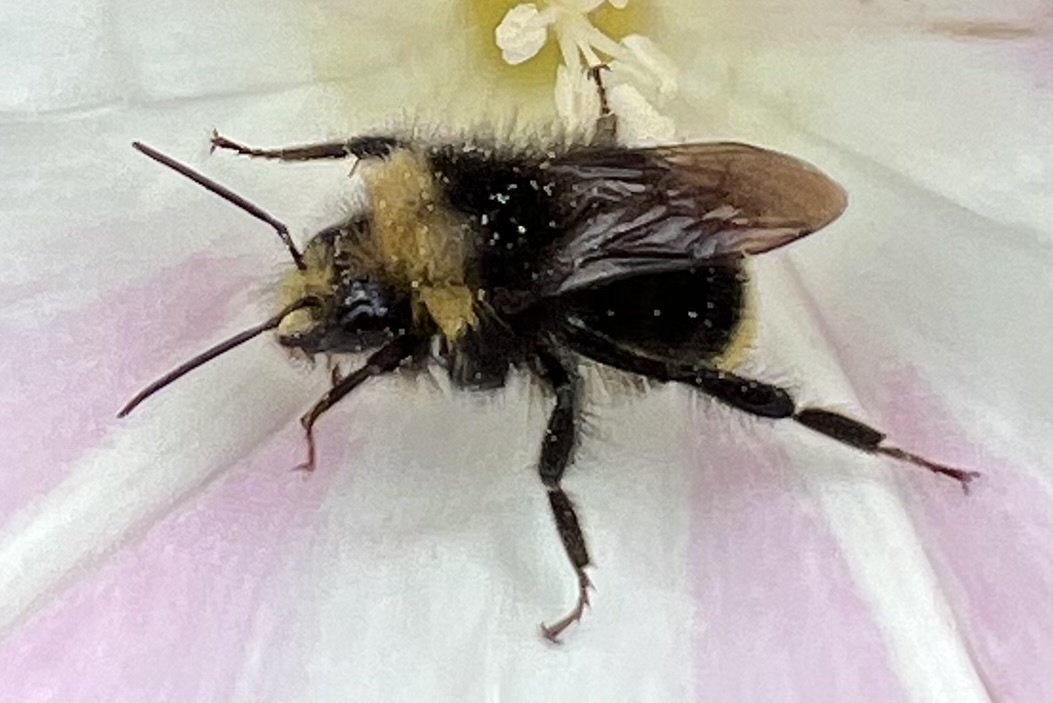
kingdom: Animalia
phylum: Arthropoda
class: Insecta
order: Hymenoptera
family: Apidae
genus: Bombus
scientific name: Bombus caliginosus
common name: Obscure bumble bee
